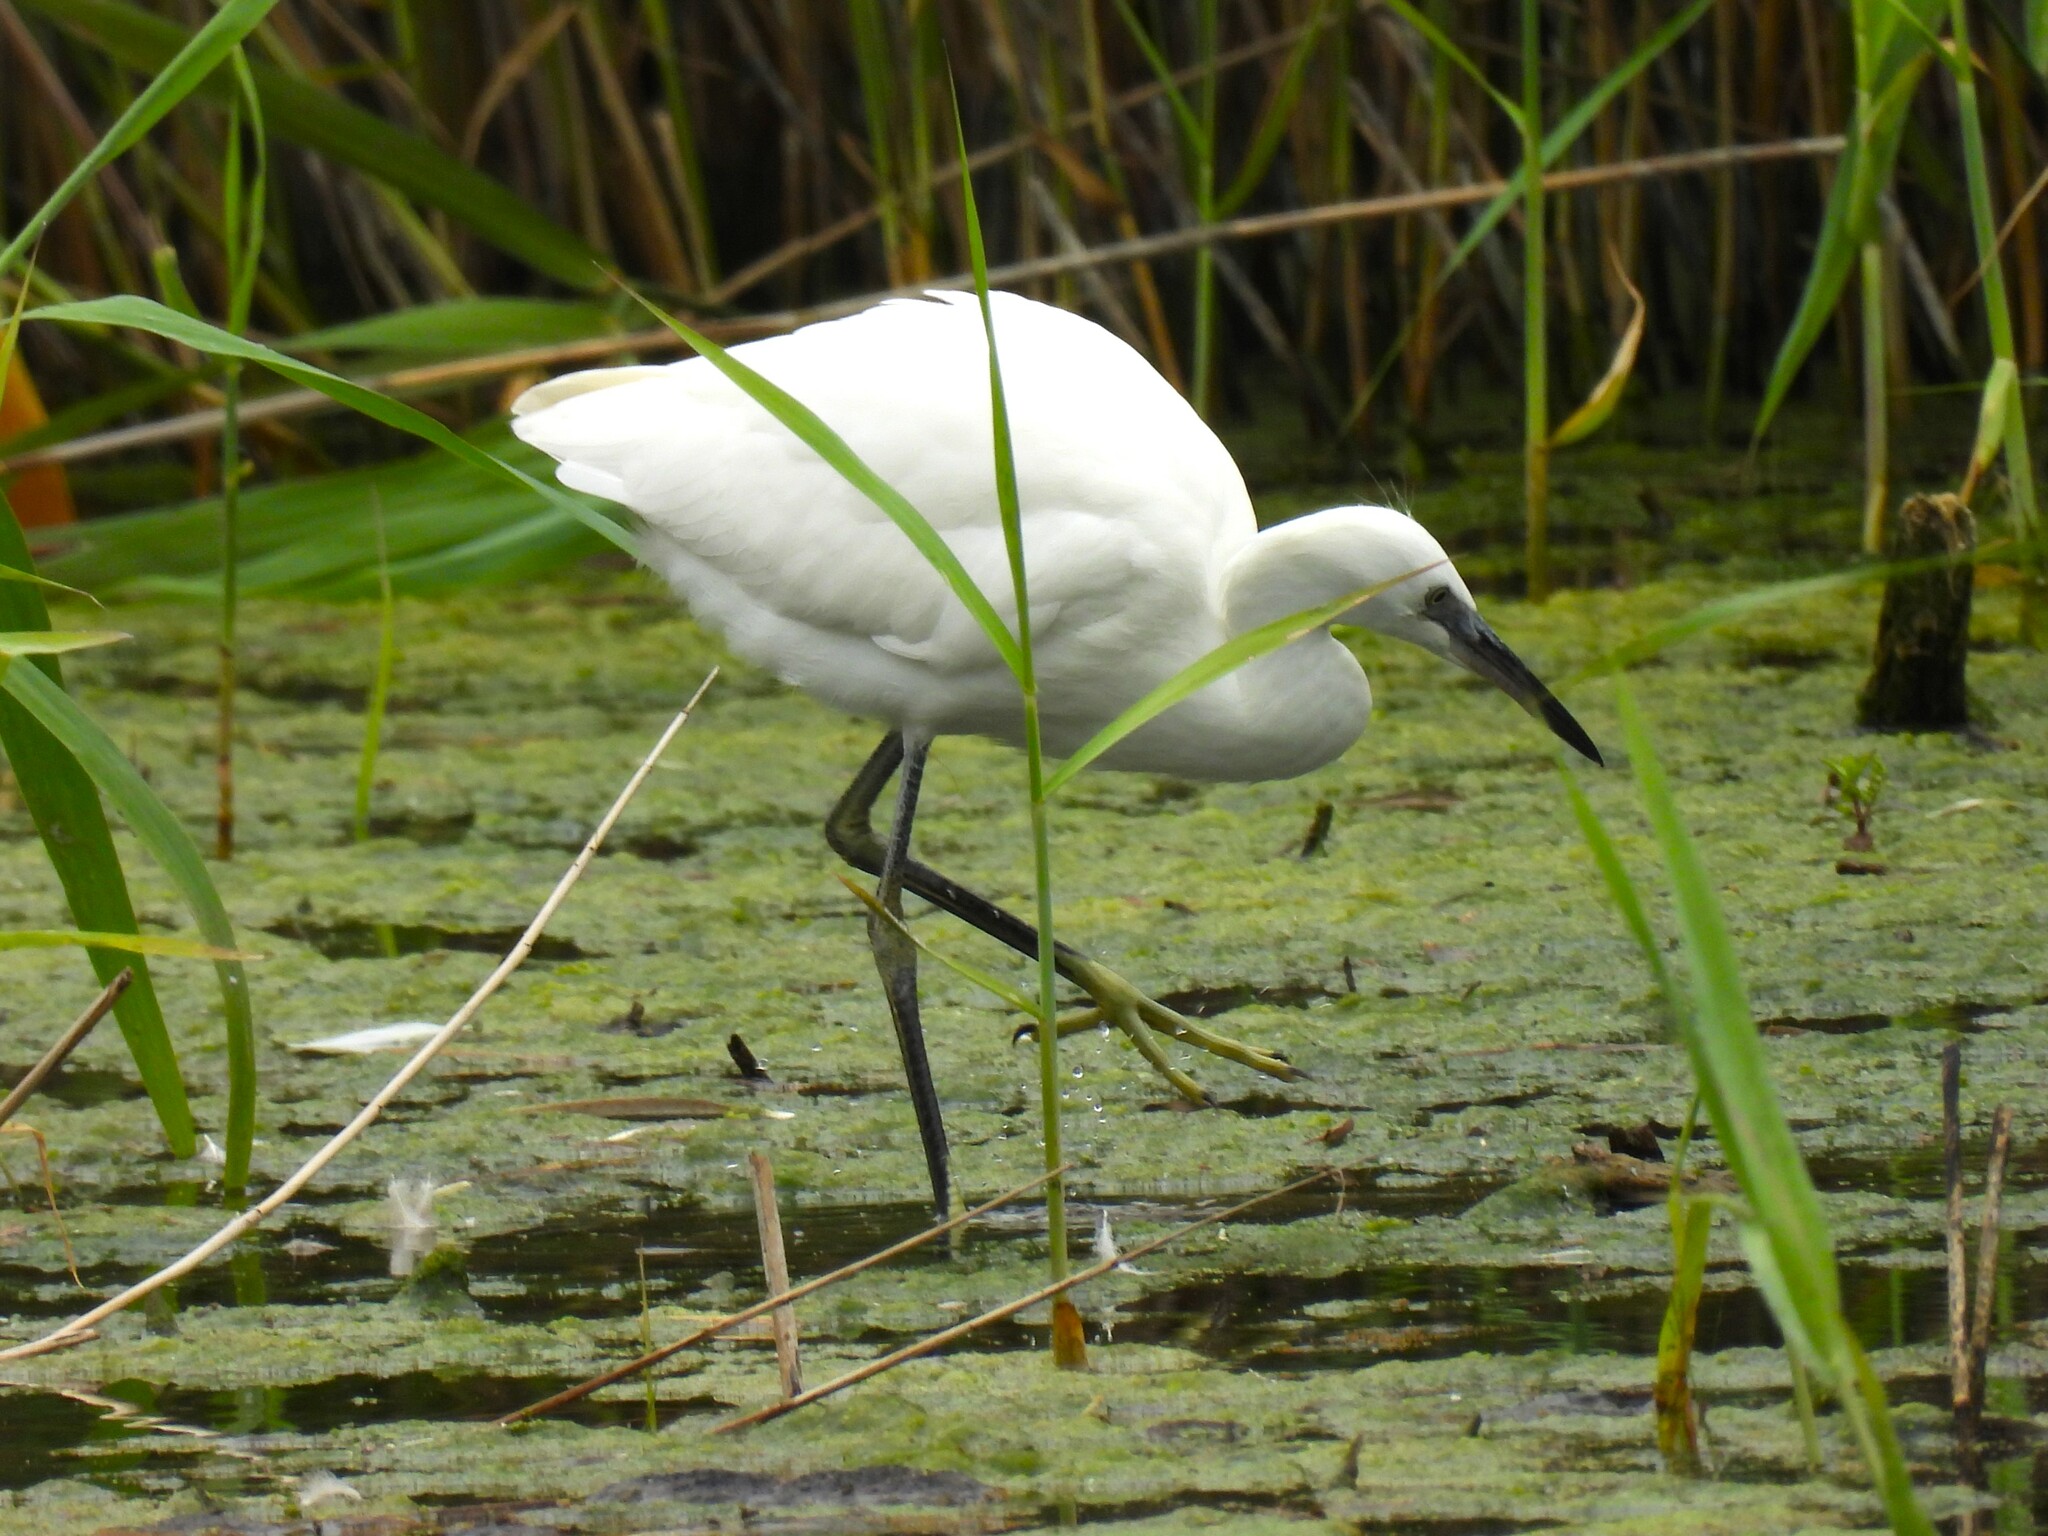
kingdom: Animalia
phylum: Chordata
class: Aves
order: Pelecaniformes
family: Ardeidae
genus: Egretta
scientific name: Egretta garzetta
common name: Little egret
